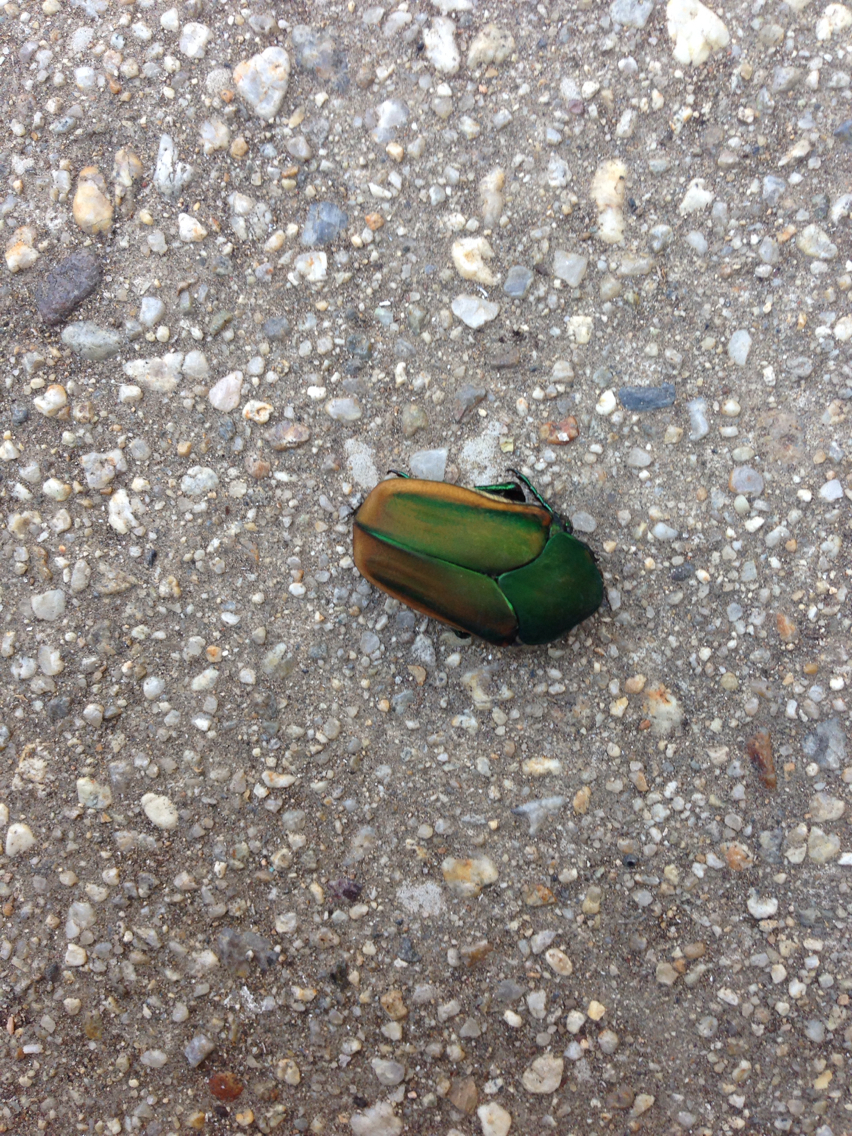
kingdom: Animalia
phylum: Arthropoda
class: Insecta
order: Coleoptera
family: Scarabaeidae
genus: Cotinis
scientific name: Cotinis mutabilis
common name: Figeater beetle
